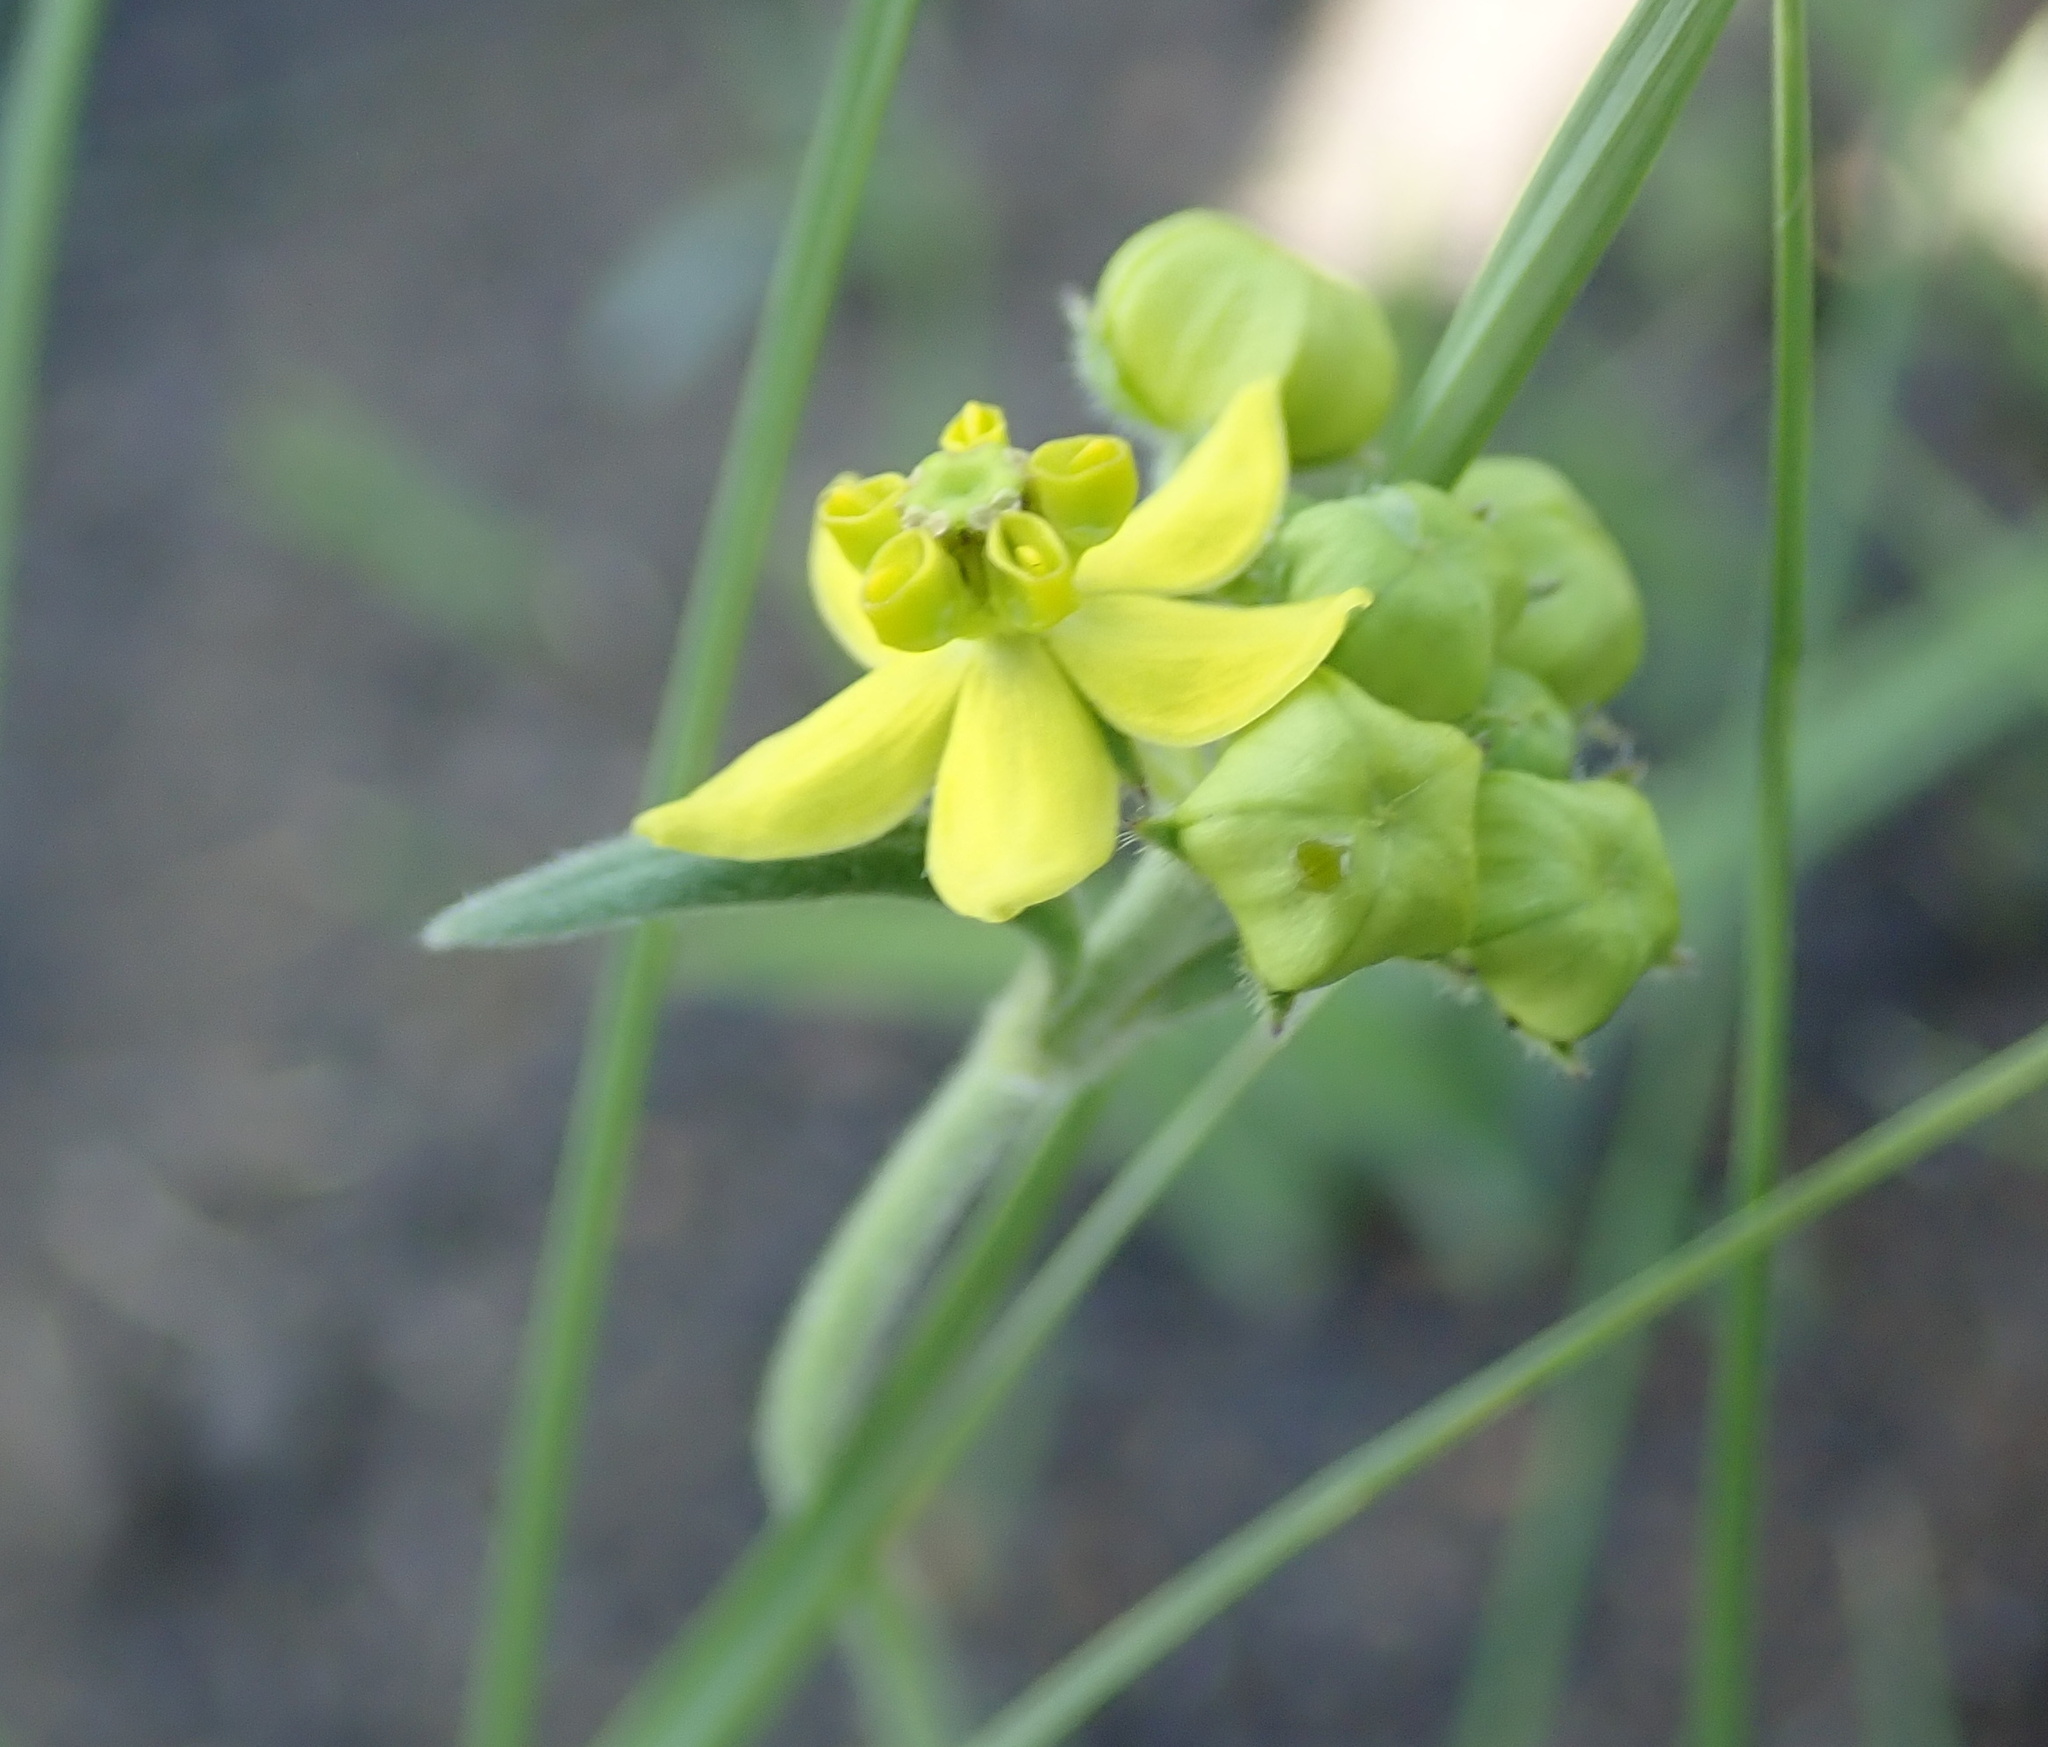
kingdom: Plantae
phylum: Tracheophyta
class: Magnoliopsida
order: Gentianales
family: Apocynaceae
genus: Aspidonepsis
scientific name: Aspidonepsis diploglossa
